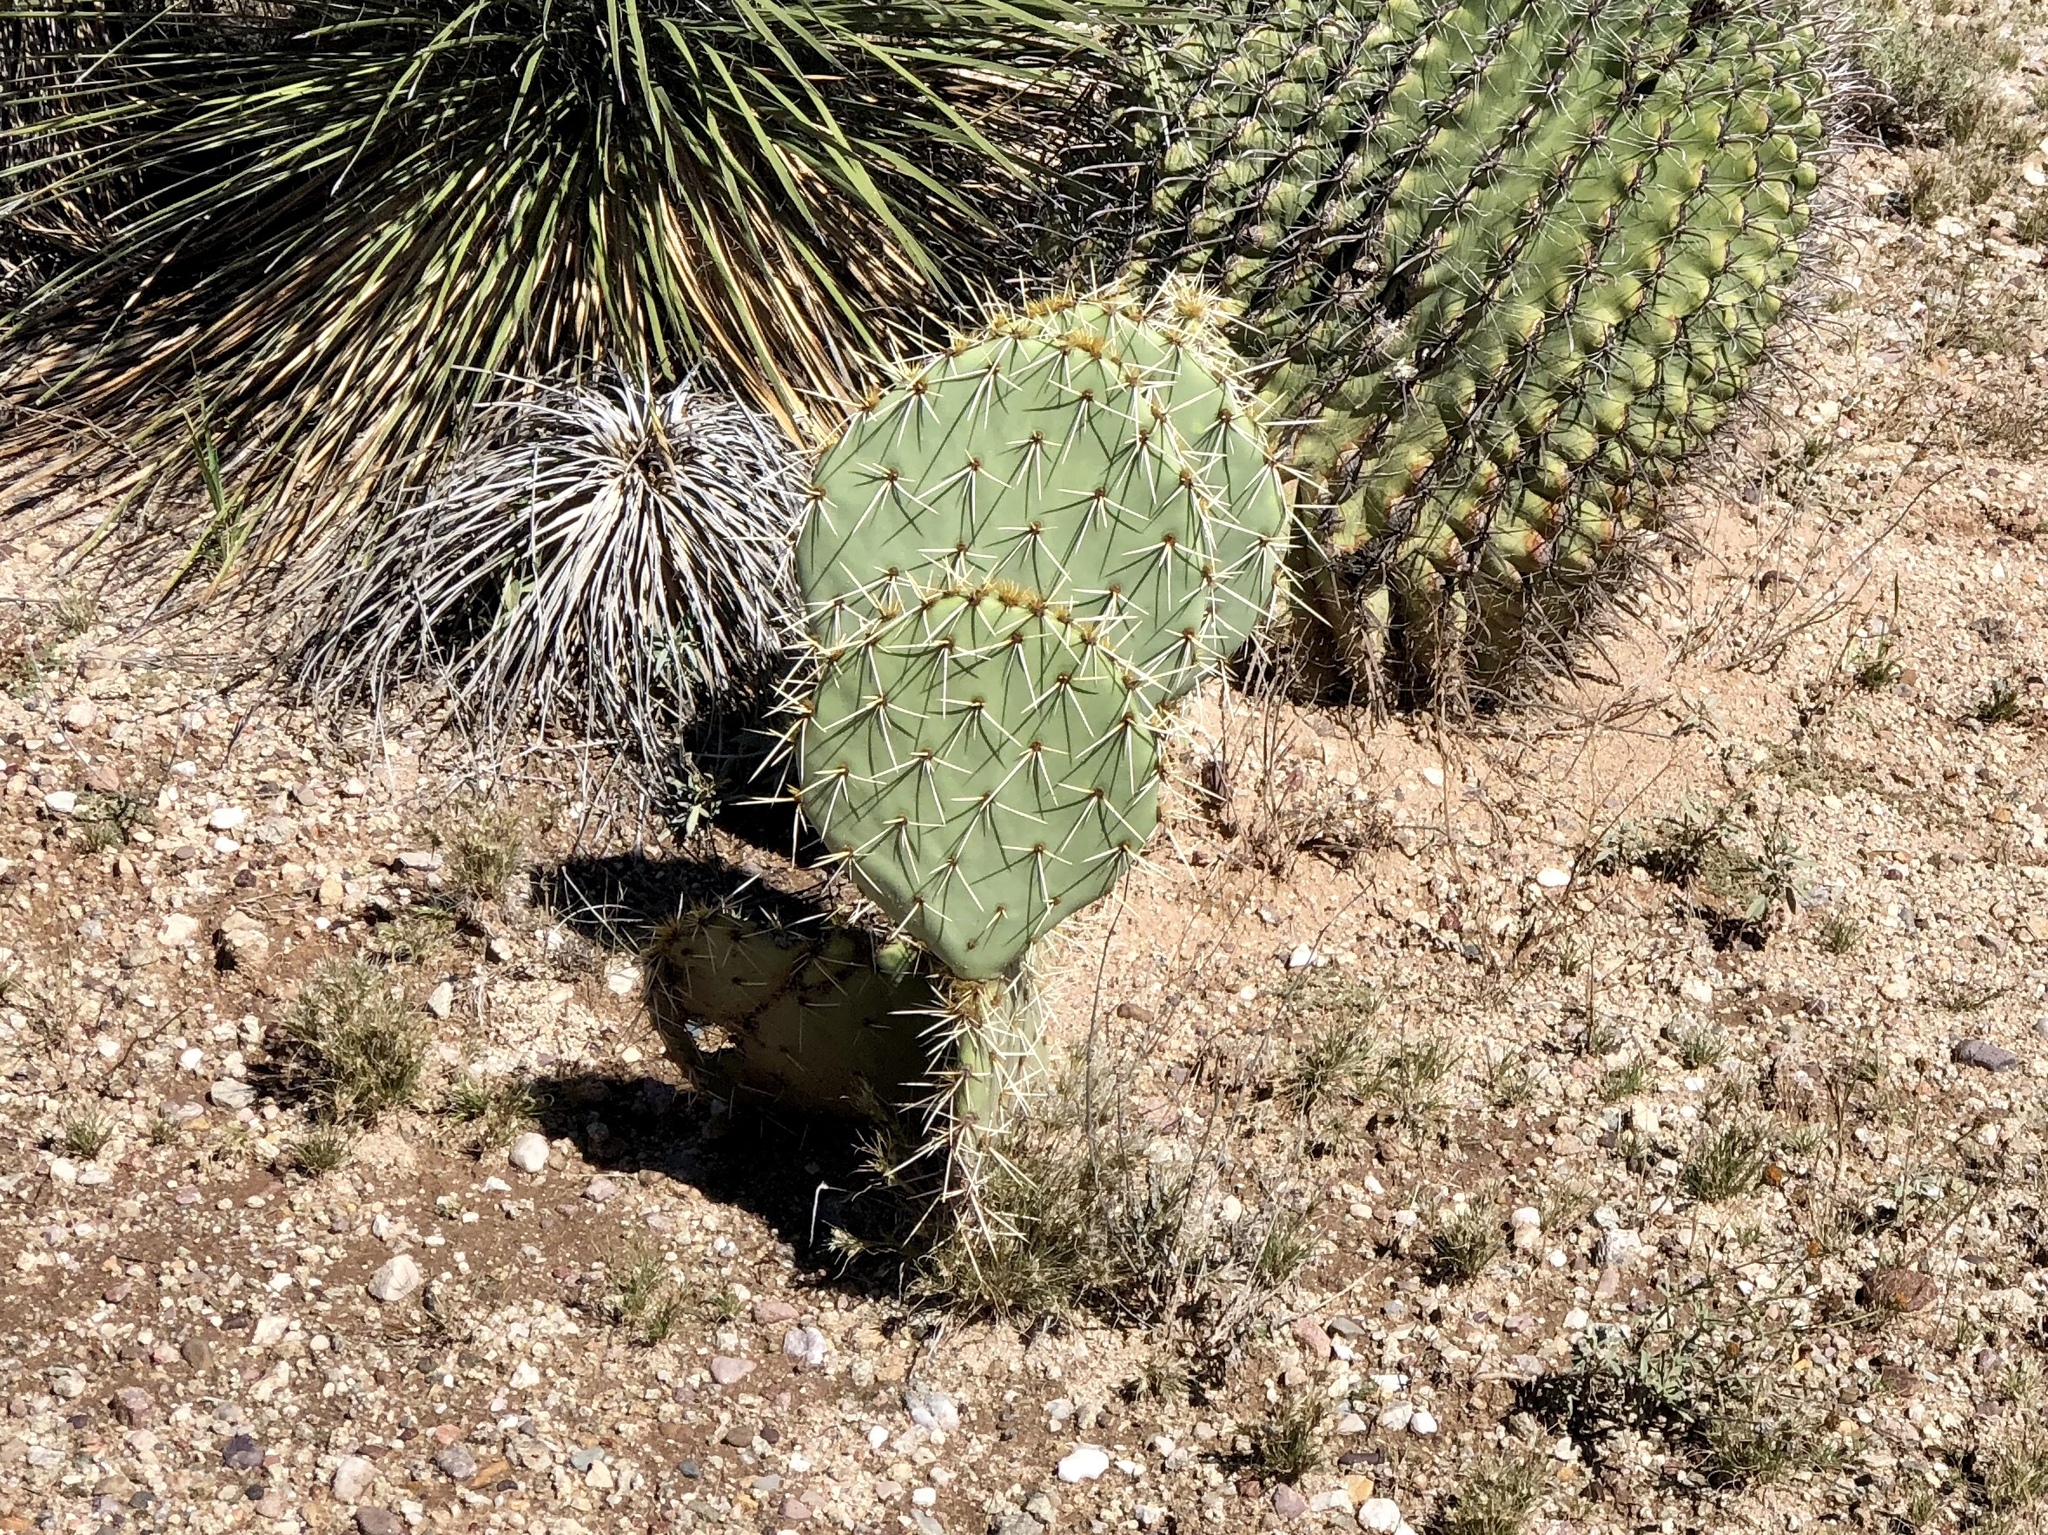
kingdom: Plantae
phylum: Tracheophyta
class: Magnoliopsida
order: Caryophyllales
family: Cactaceae
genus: Opuntia
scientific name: Opuntia engelmannii
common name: Cactus-apple
